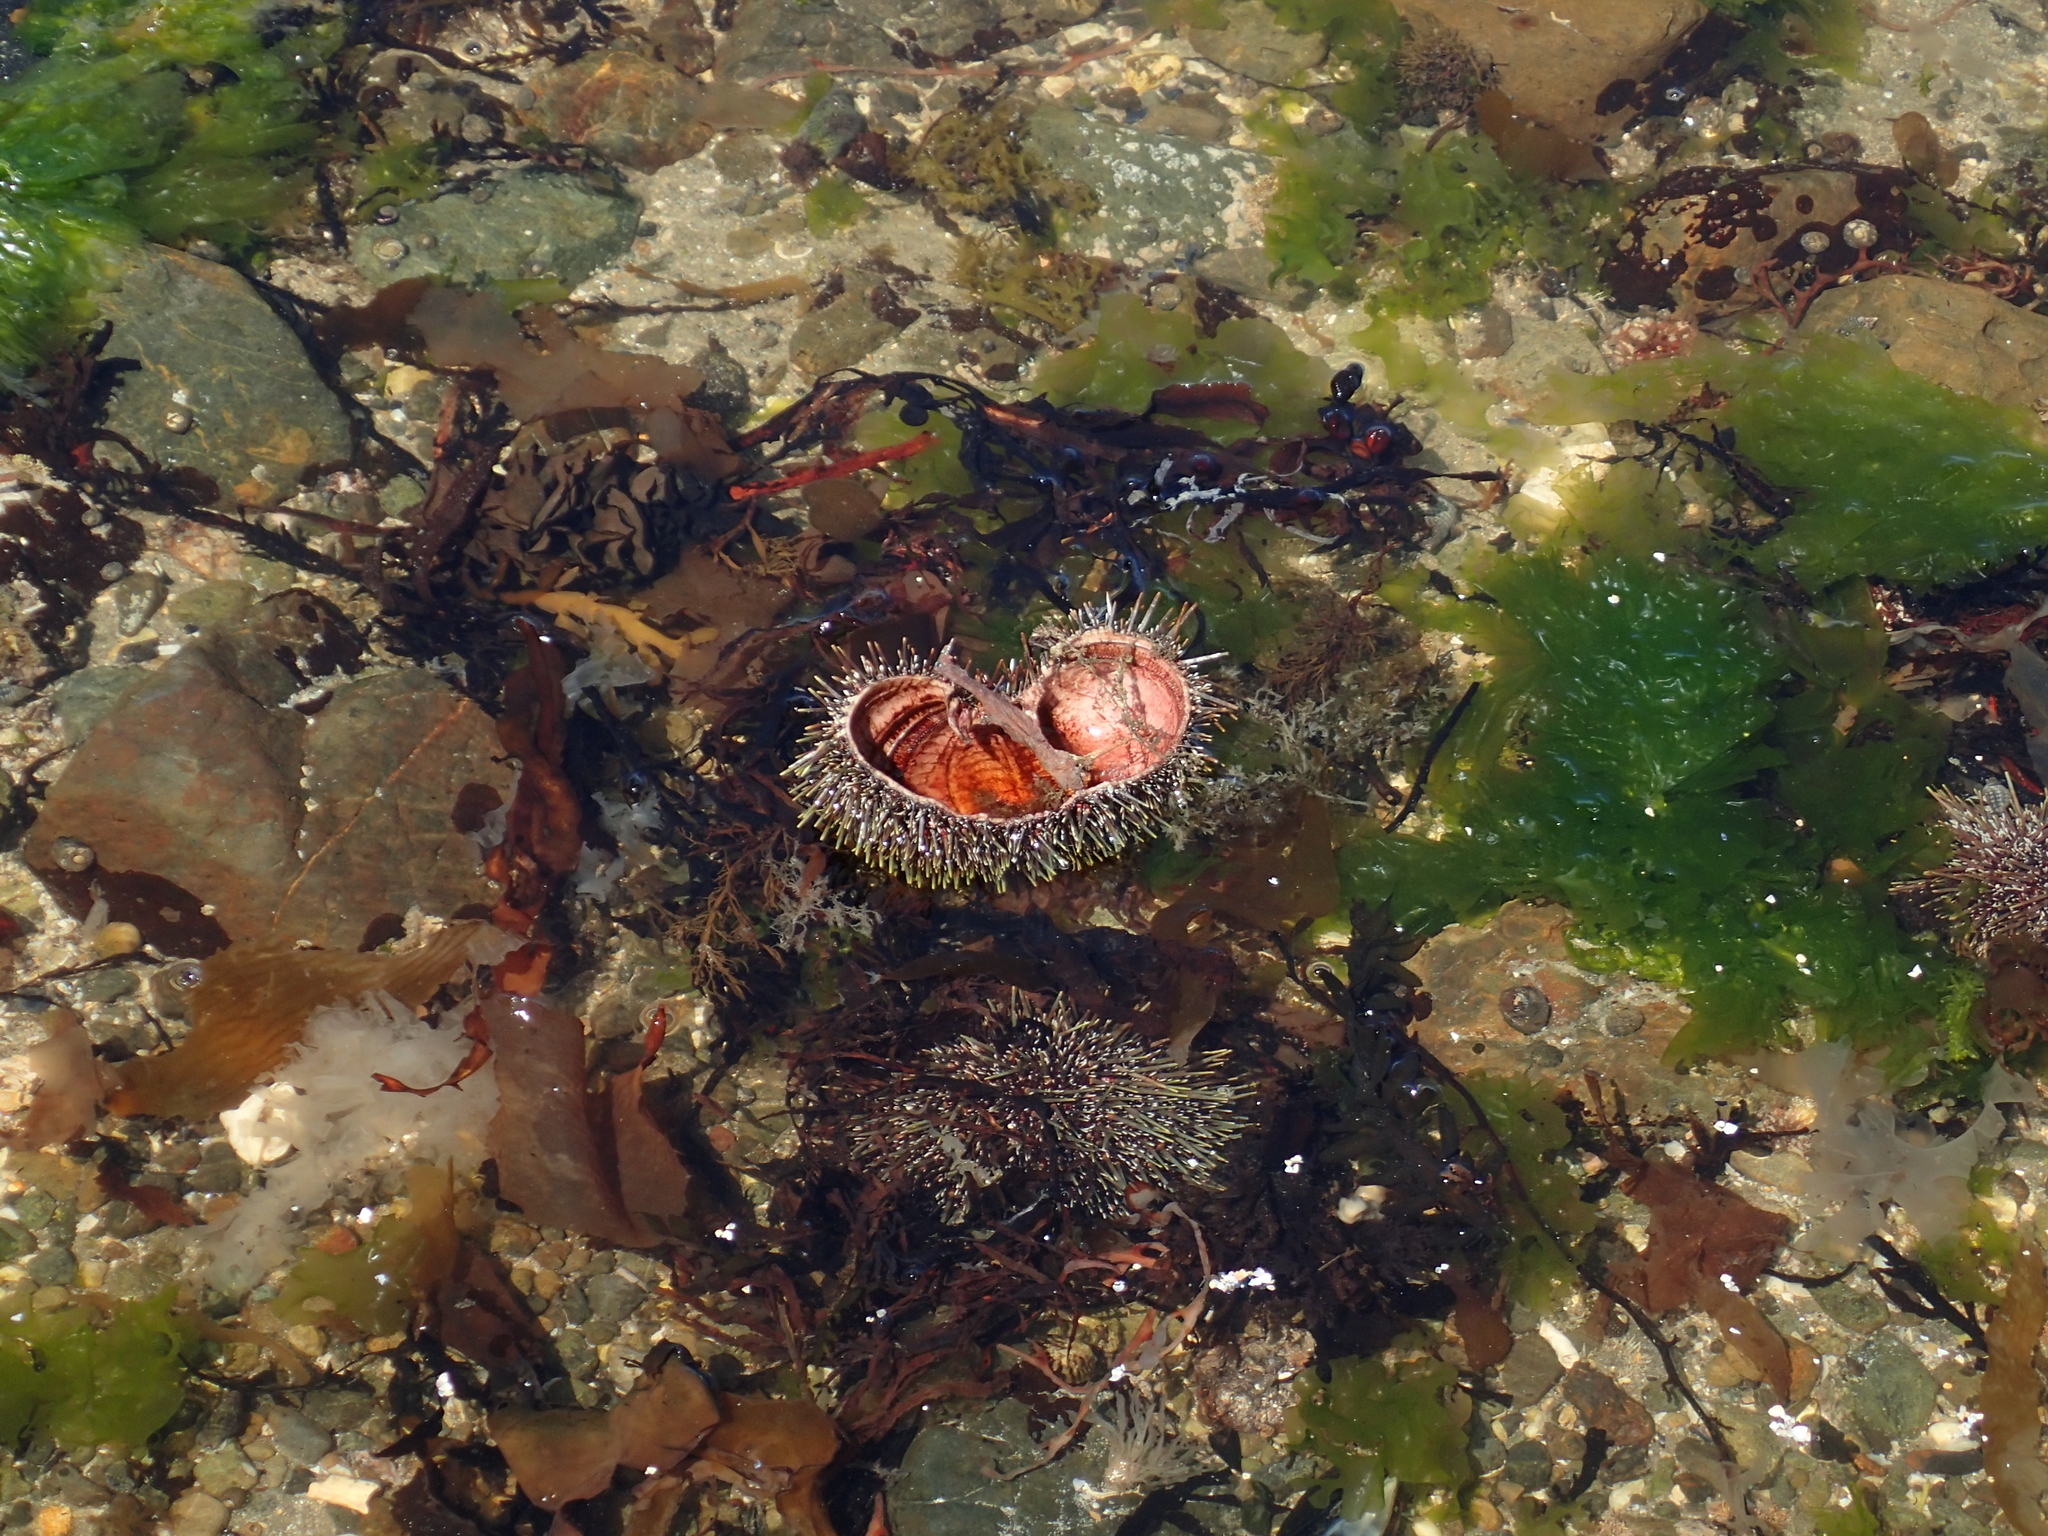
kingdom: Animalia
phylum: Echinodermata
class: Echinoidea
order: Camarodonta
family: Echinometridae
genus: Evechinus
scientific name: Evechinus chloroticus
